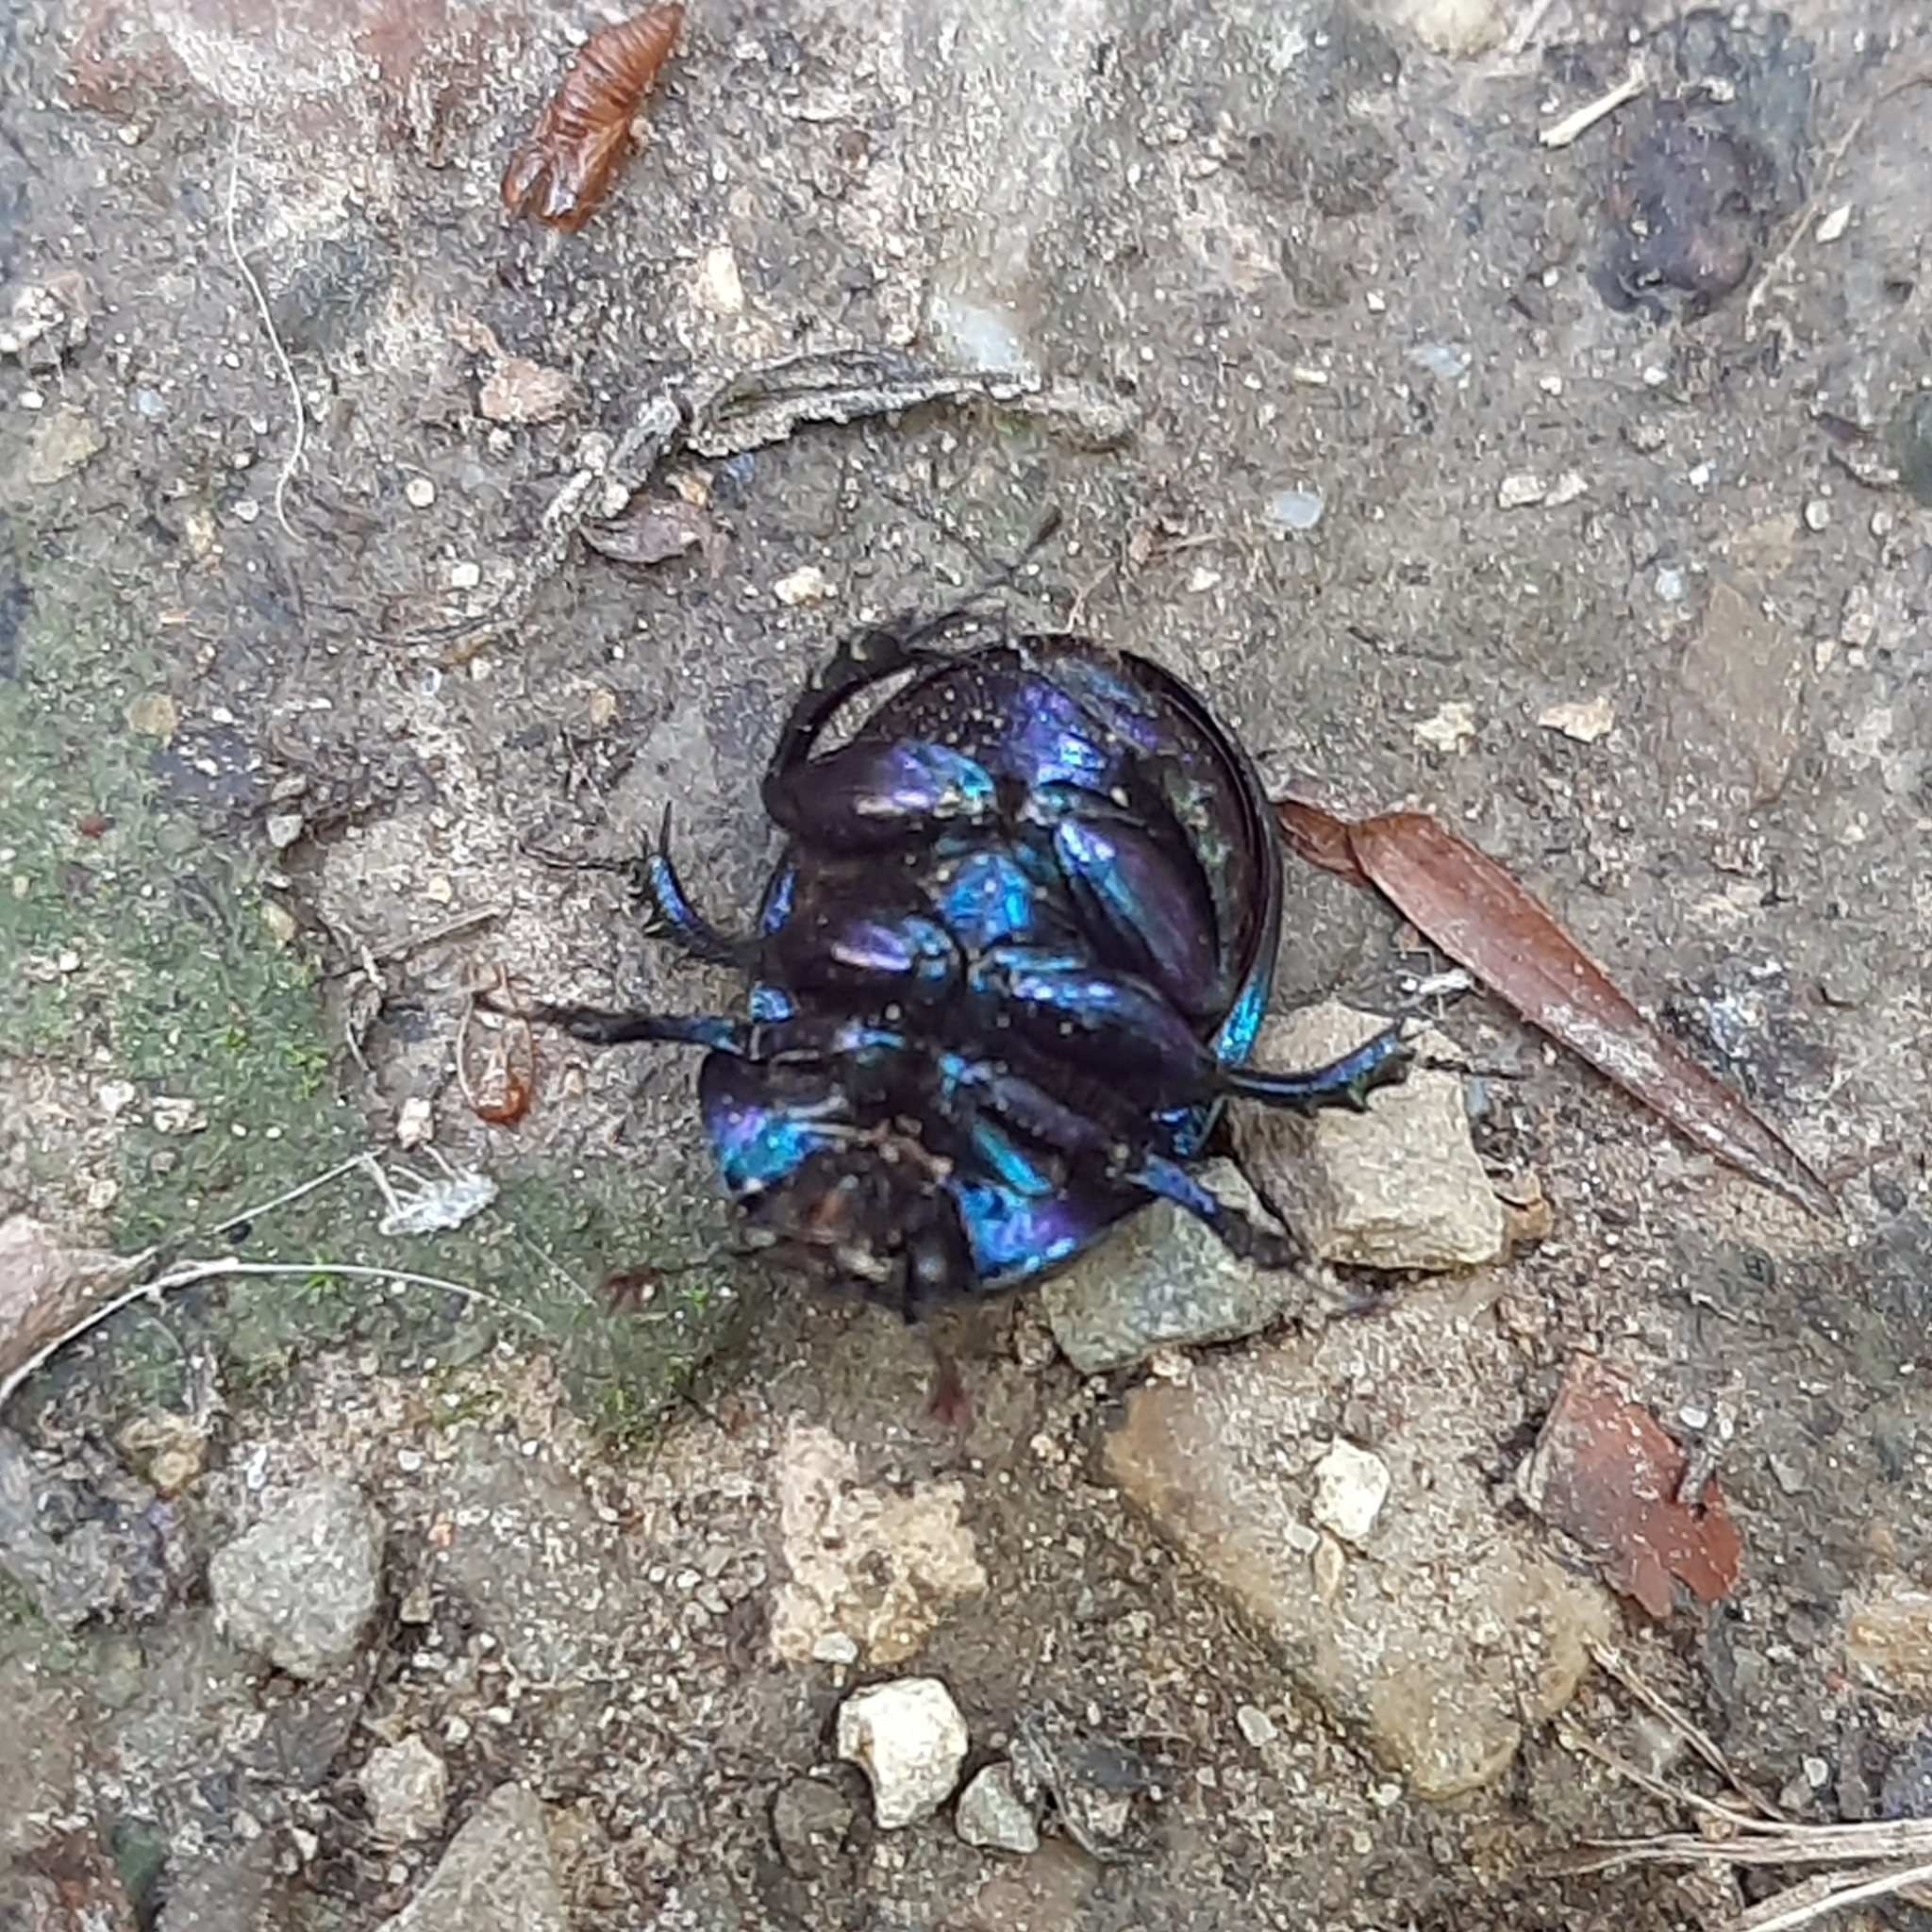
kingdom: Animalia
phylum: Arthropoda
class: Insecta
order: Coleoptera
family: Geotrupidae
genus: Anoplotrupes
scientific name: Anoplotrupes stercorosus
